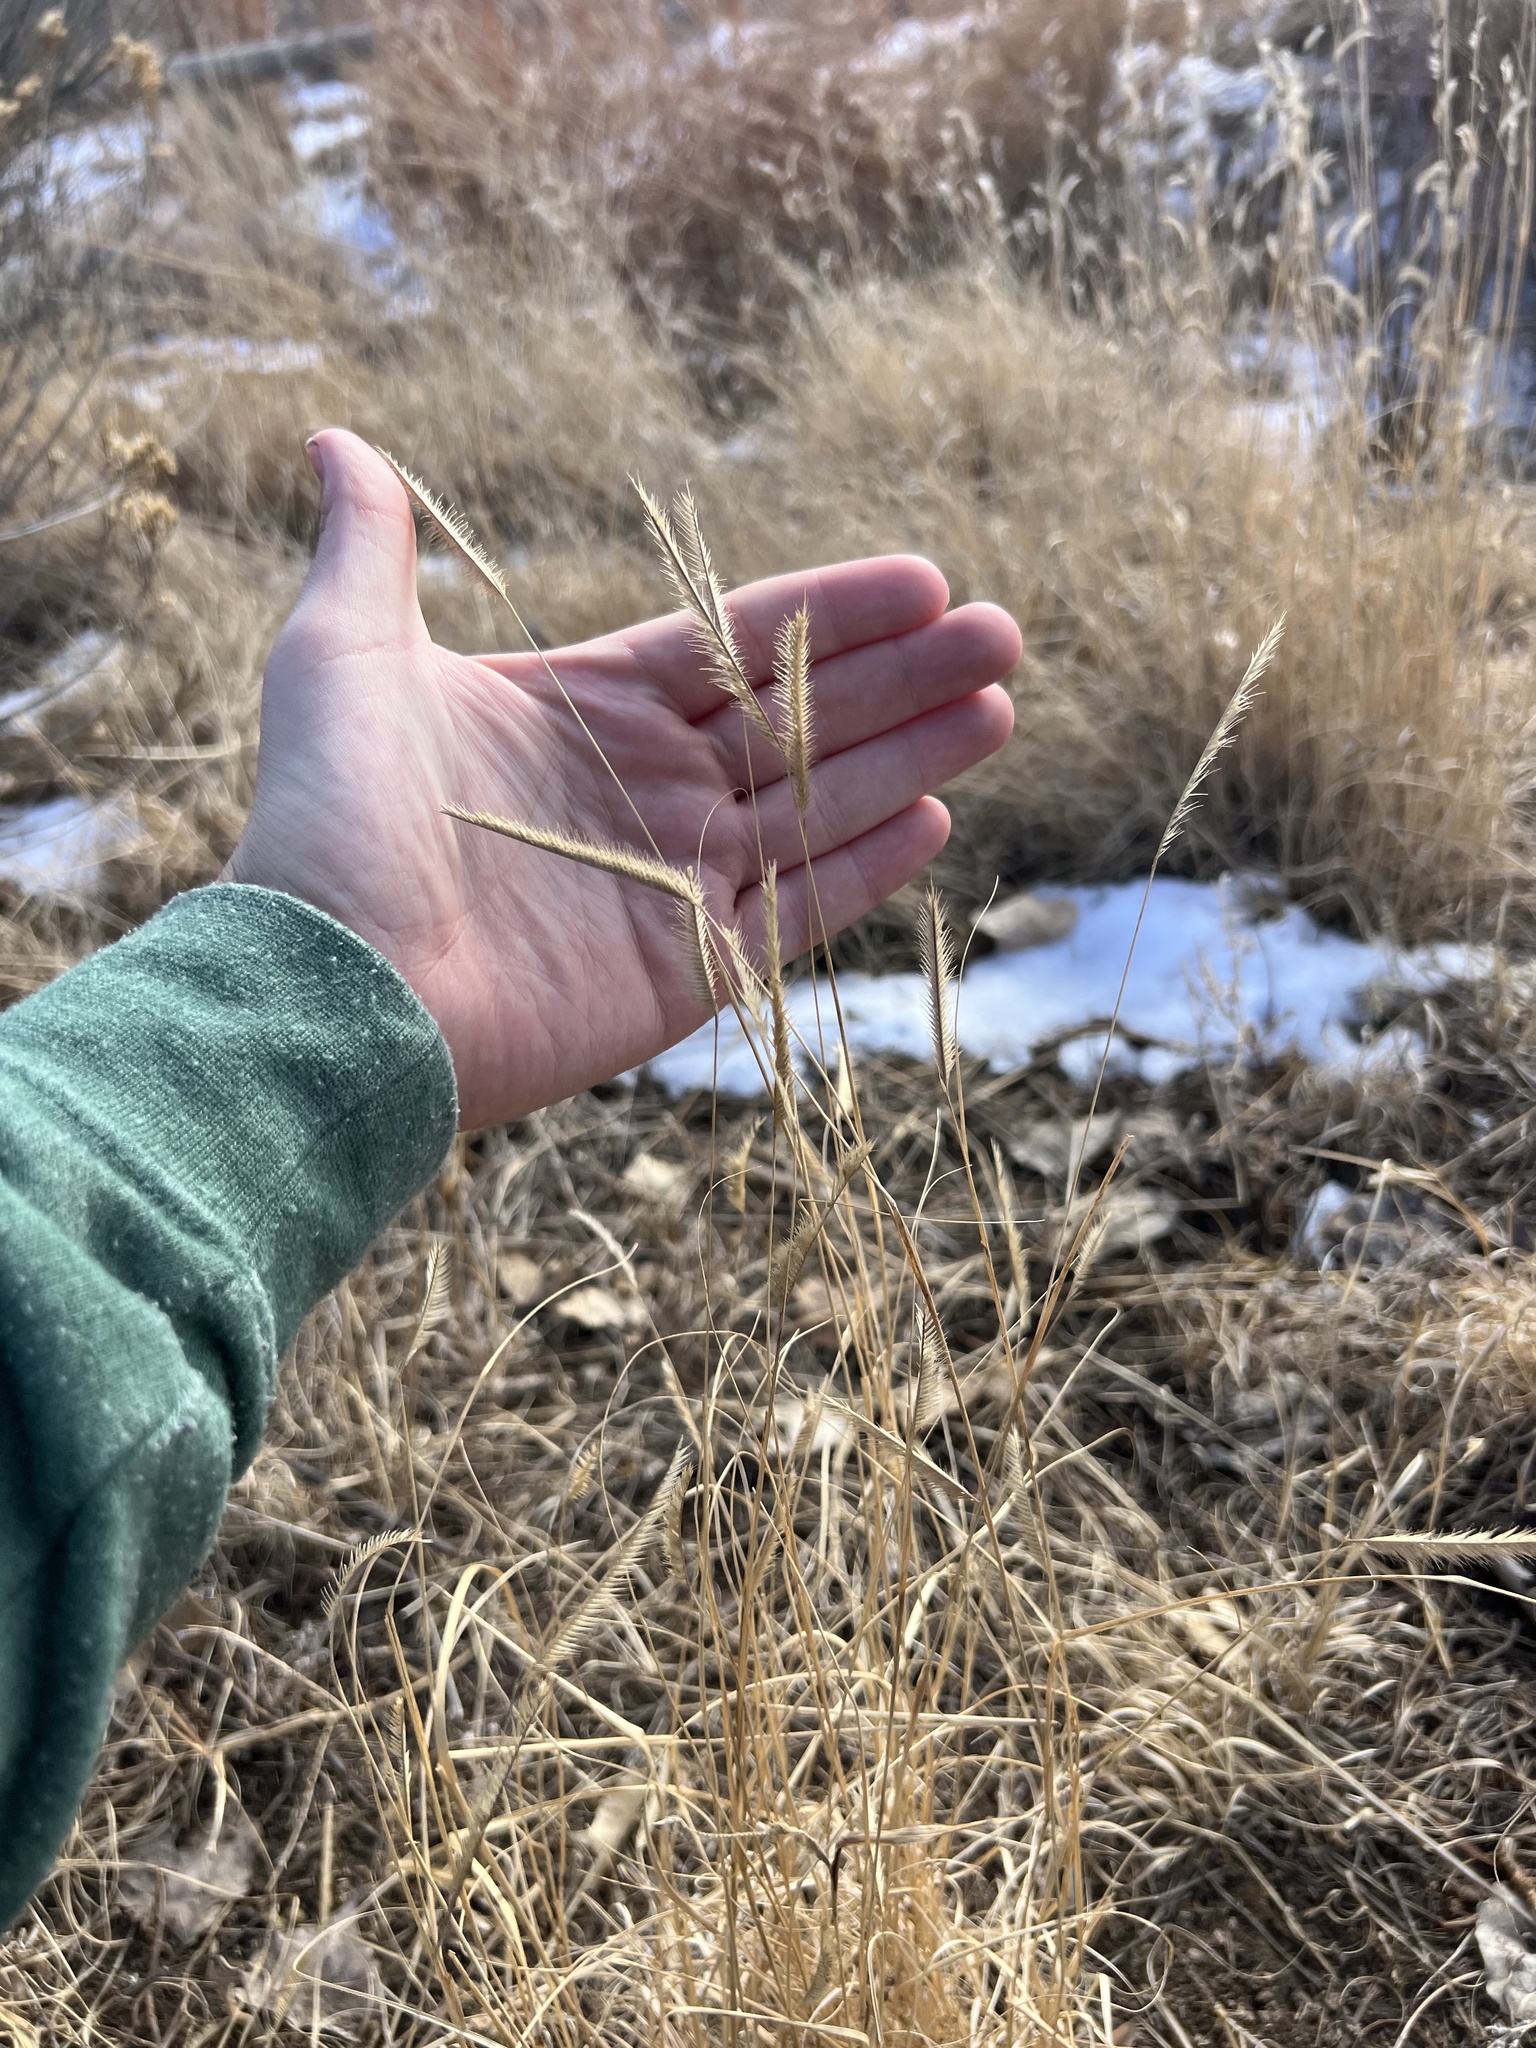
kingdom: Plantae
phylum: Tracheophyta
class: Liliopsida
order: Poales
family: Poaceae
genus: Bouteloua
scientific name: Bouteloua gracilis
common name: Blue grama
